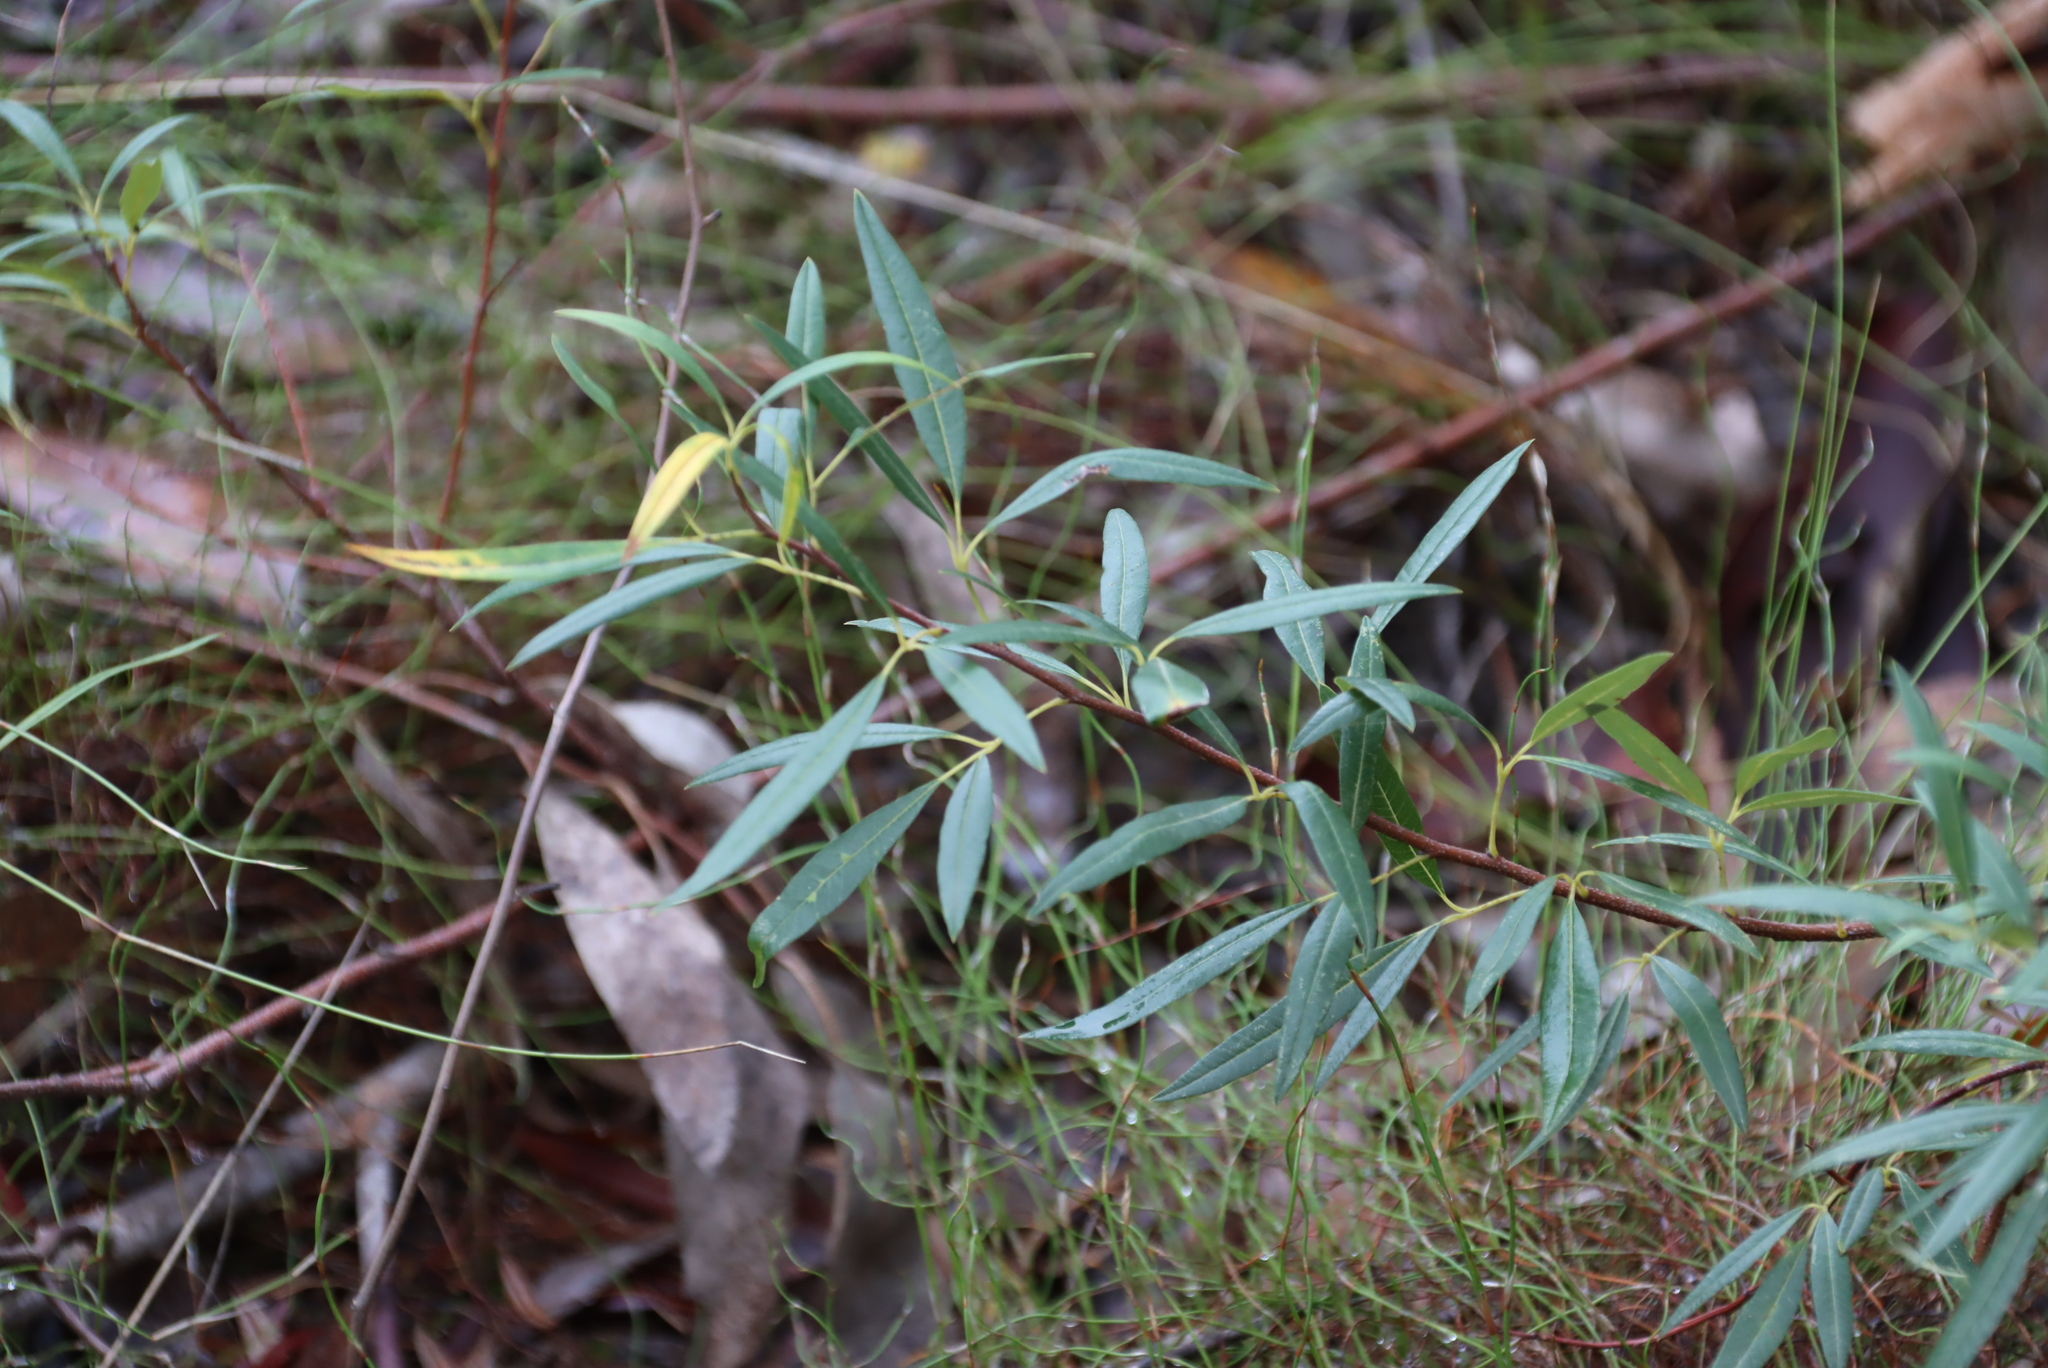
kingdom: Plantae
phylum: Tracheophyta
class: Magnoliopsida
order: Sapindales
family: Anacardiaceae
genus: Searsia
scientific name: Searsia angustifolia
